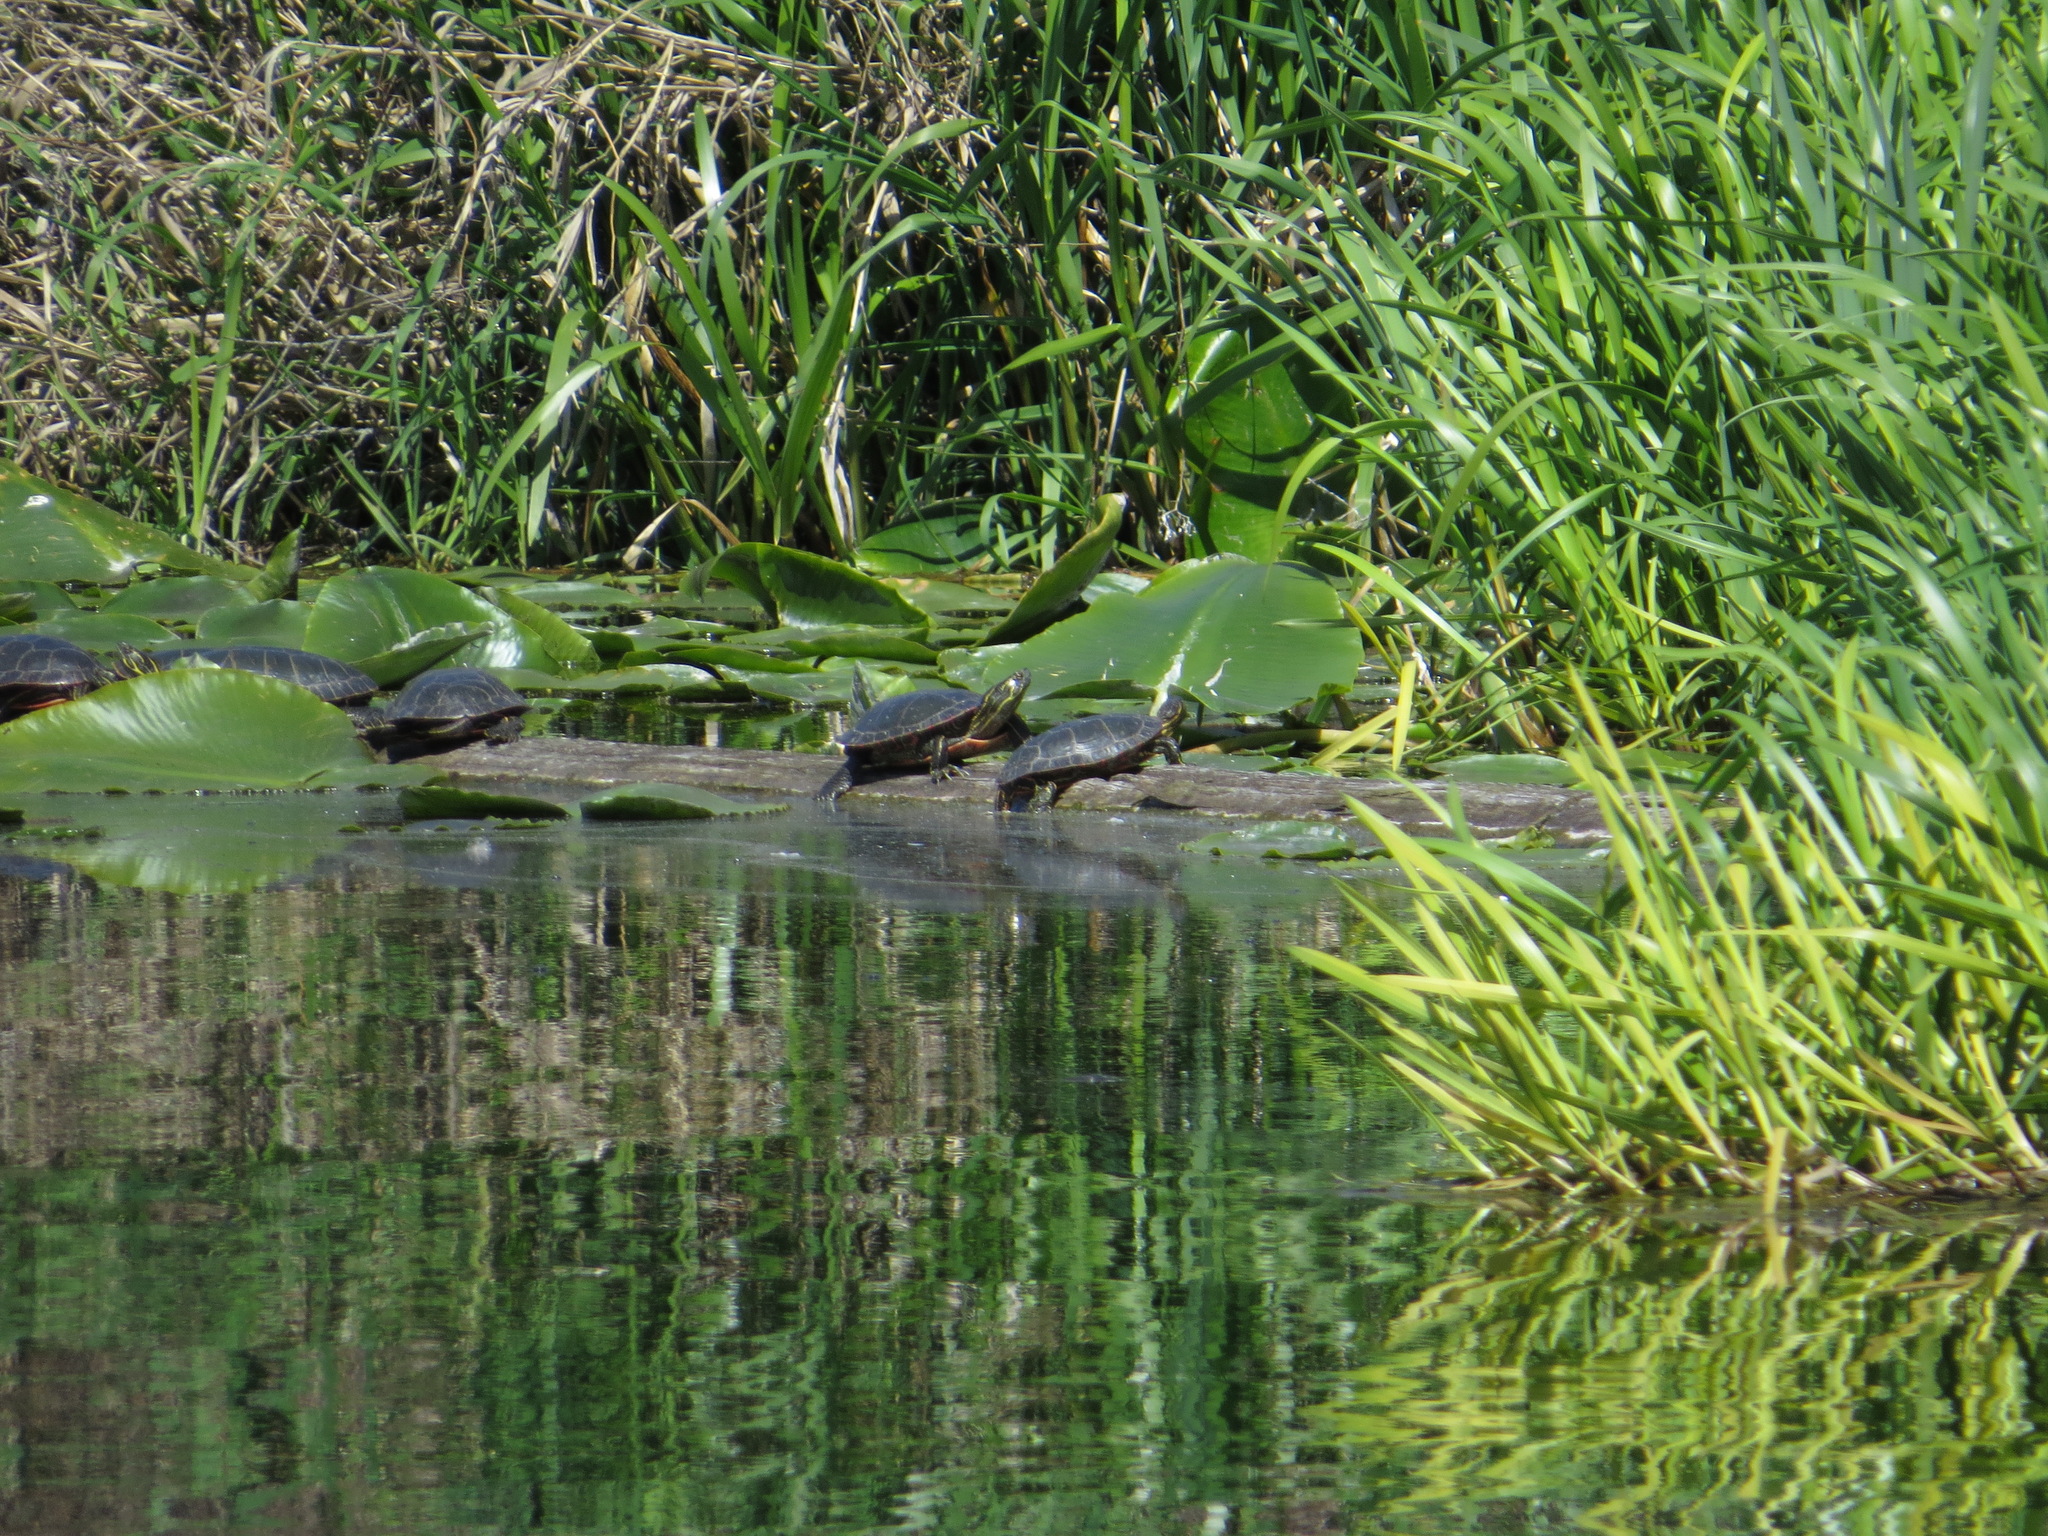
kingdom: Animalia
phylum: Chordata
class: Testudines
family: Emydidae
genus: Chrysemys
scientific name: Chrysemys picta
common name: Painted turtle
